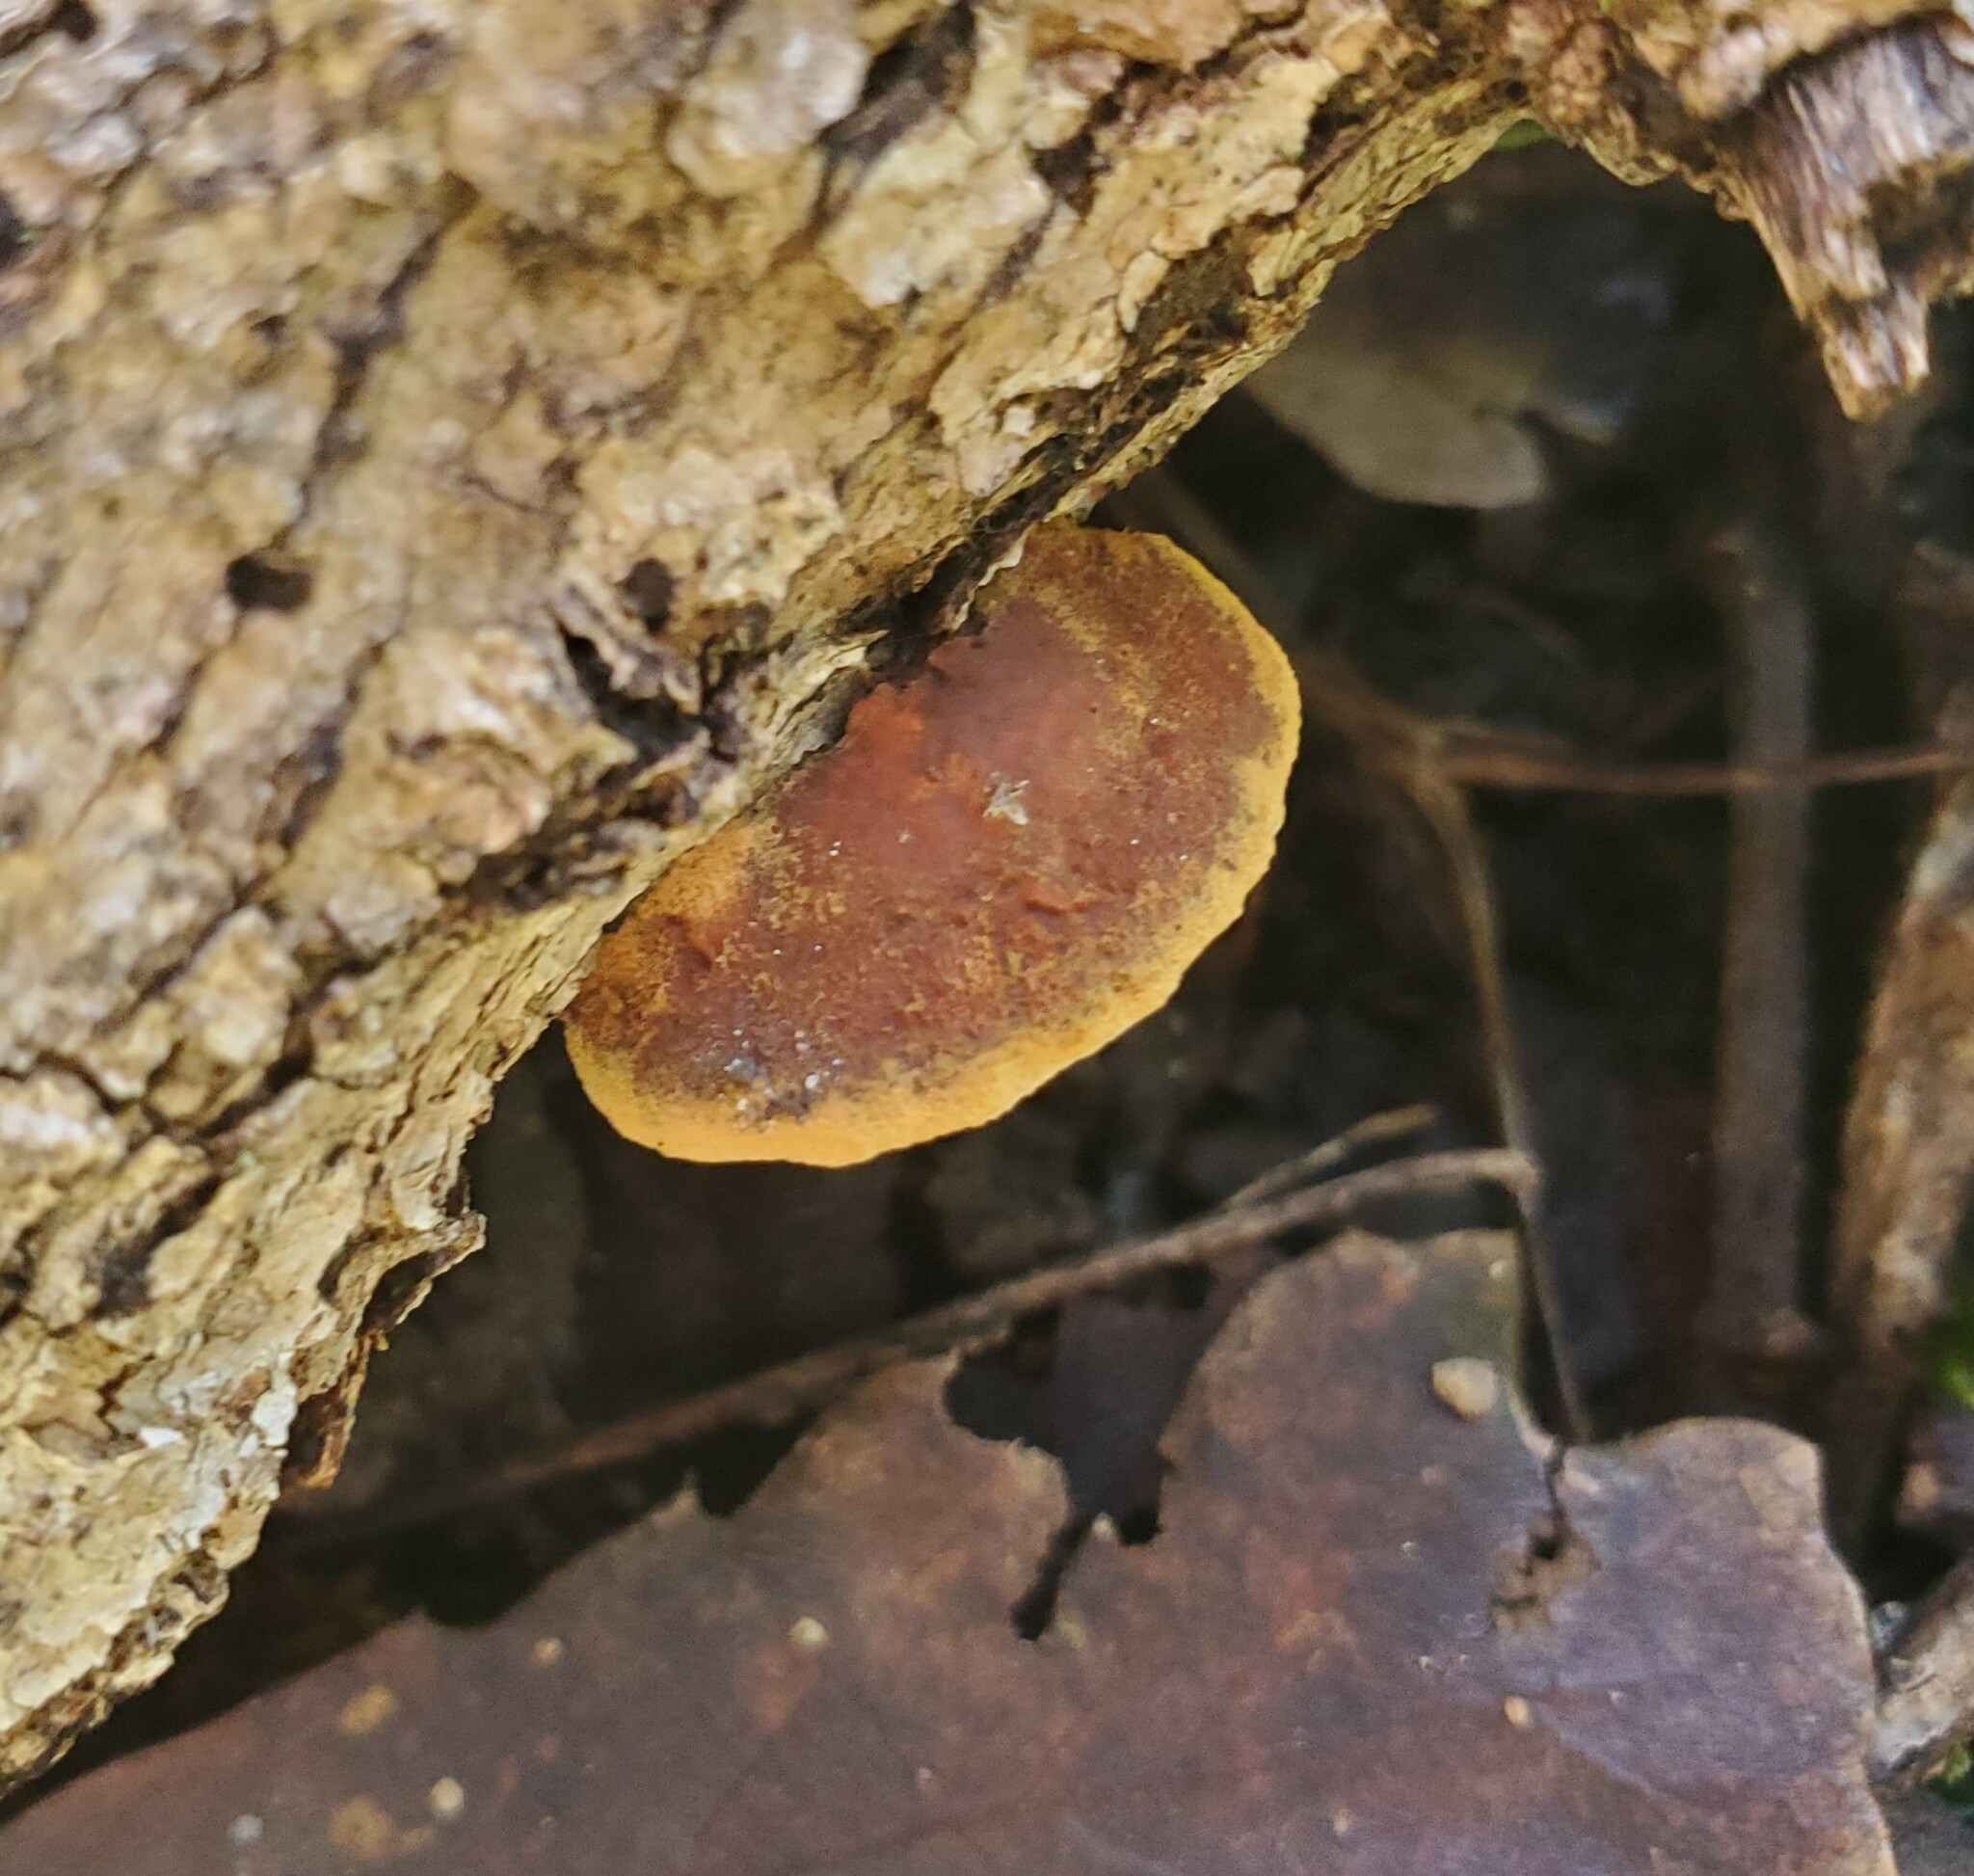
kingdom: Fungi
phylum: Basidiomycota
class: Agaricomycetes
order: Hymenochaetales
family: Hymenochaetaceae
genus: Phellinus
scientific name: Phellinus gilvus
